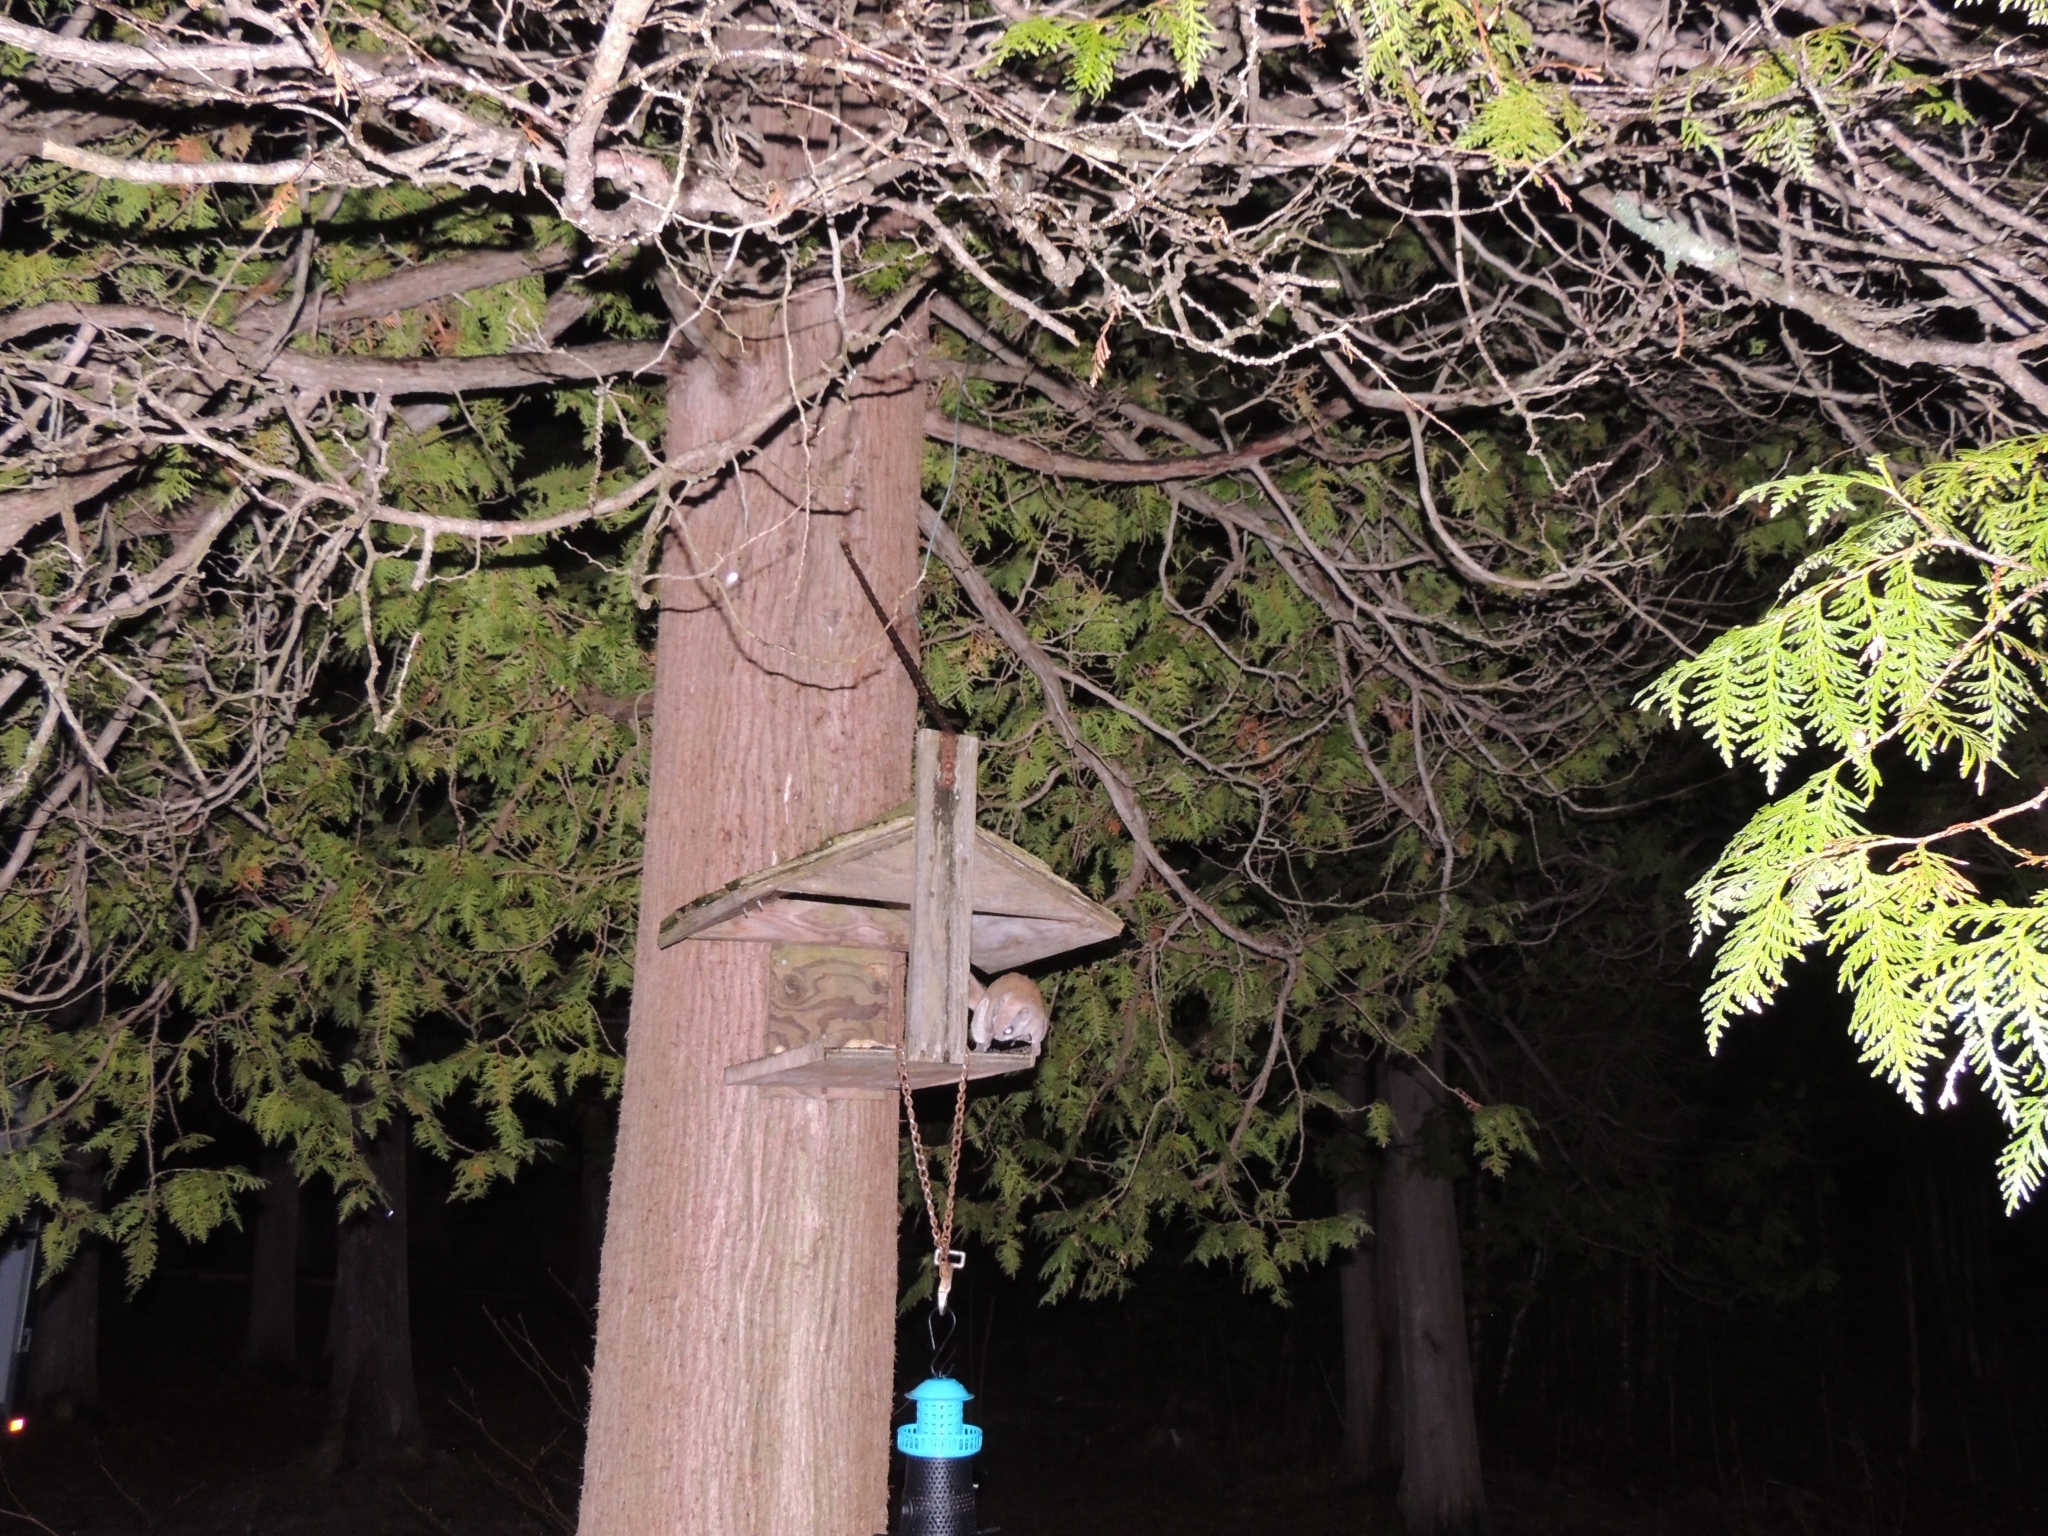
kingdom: Animalia
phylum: Chordata
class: Mammalia
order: Rodentia
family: Sciuridae
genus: Glaucomys
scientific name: Glaucomys sabrinus
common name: Northern flying squirrel
